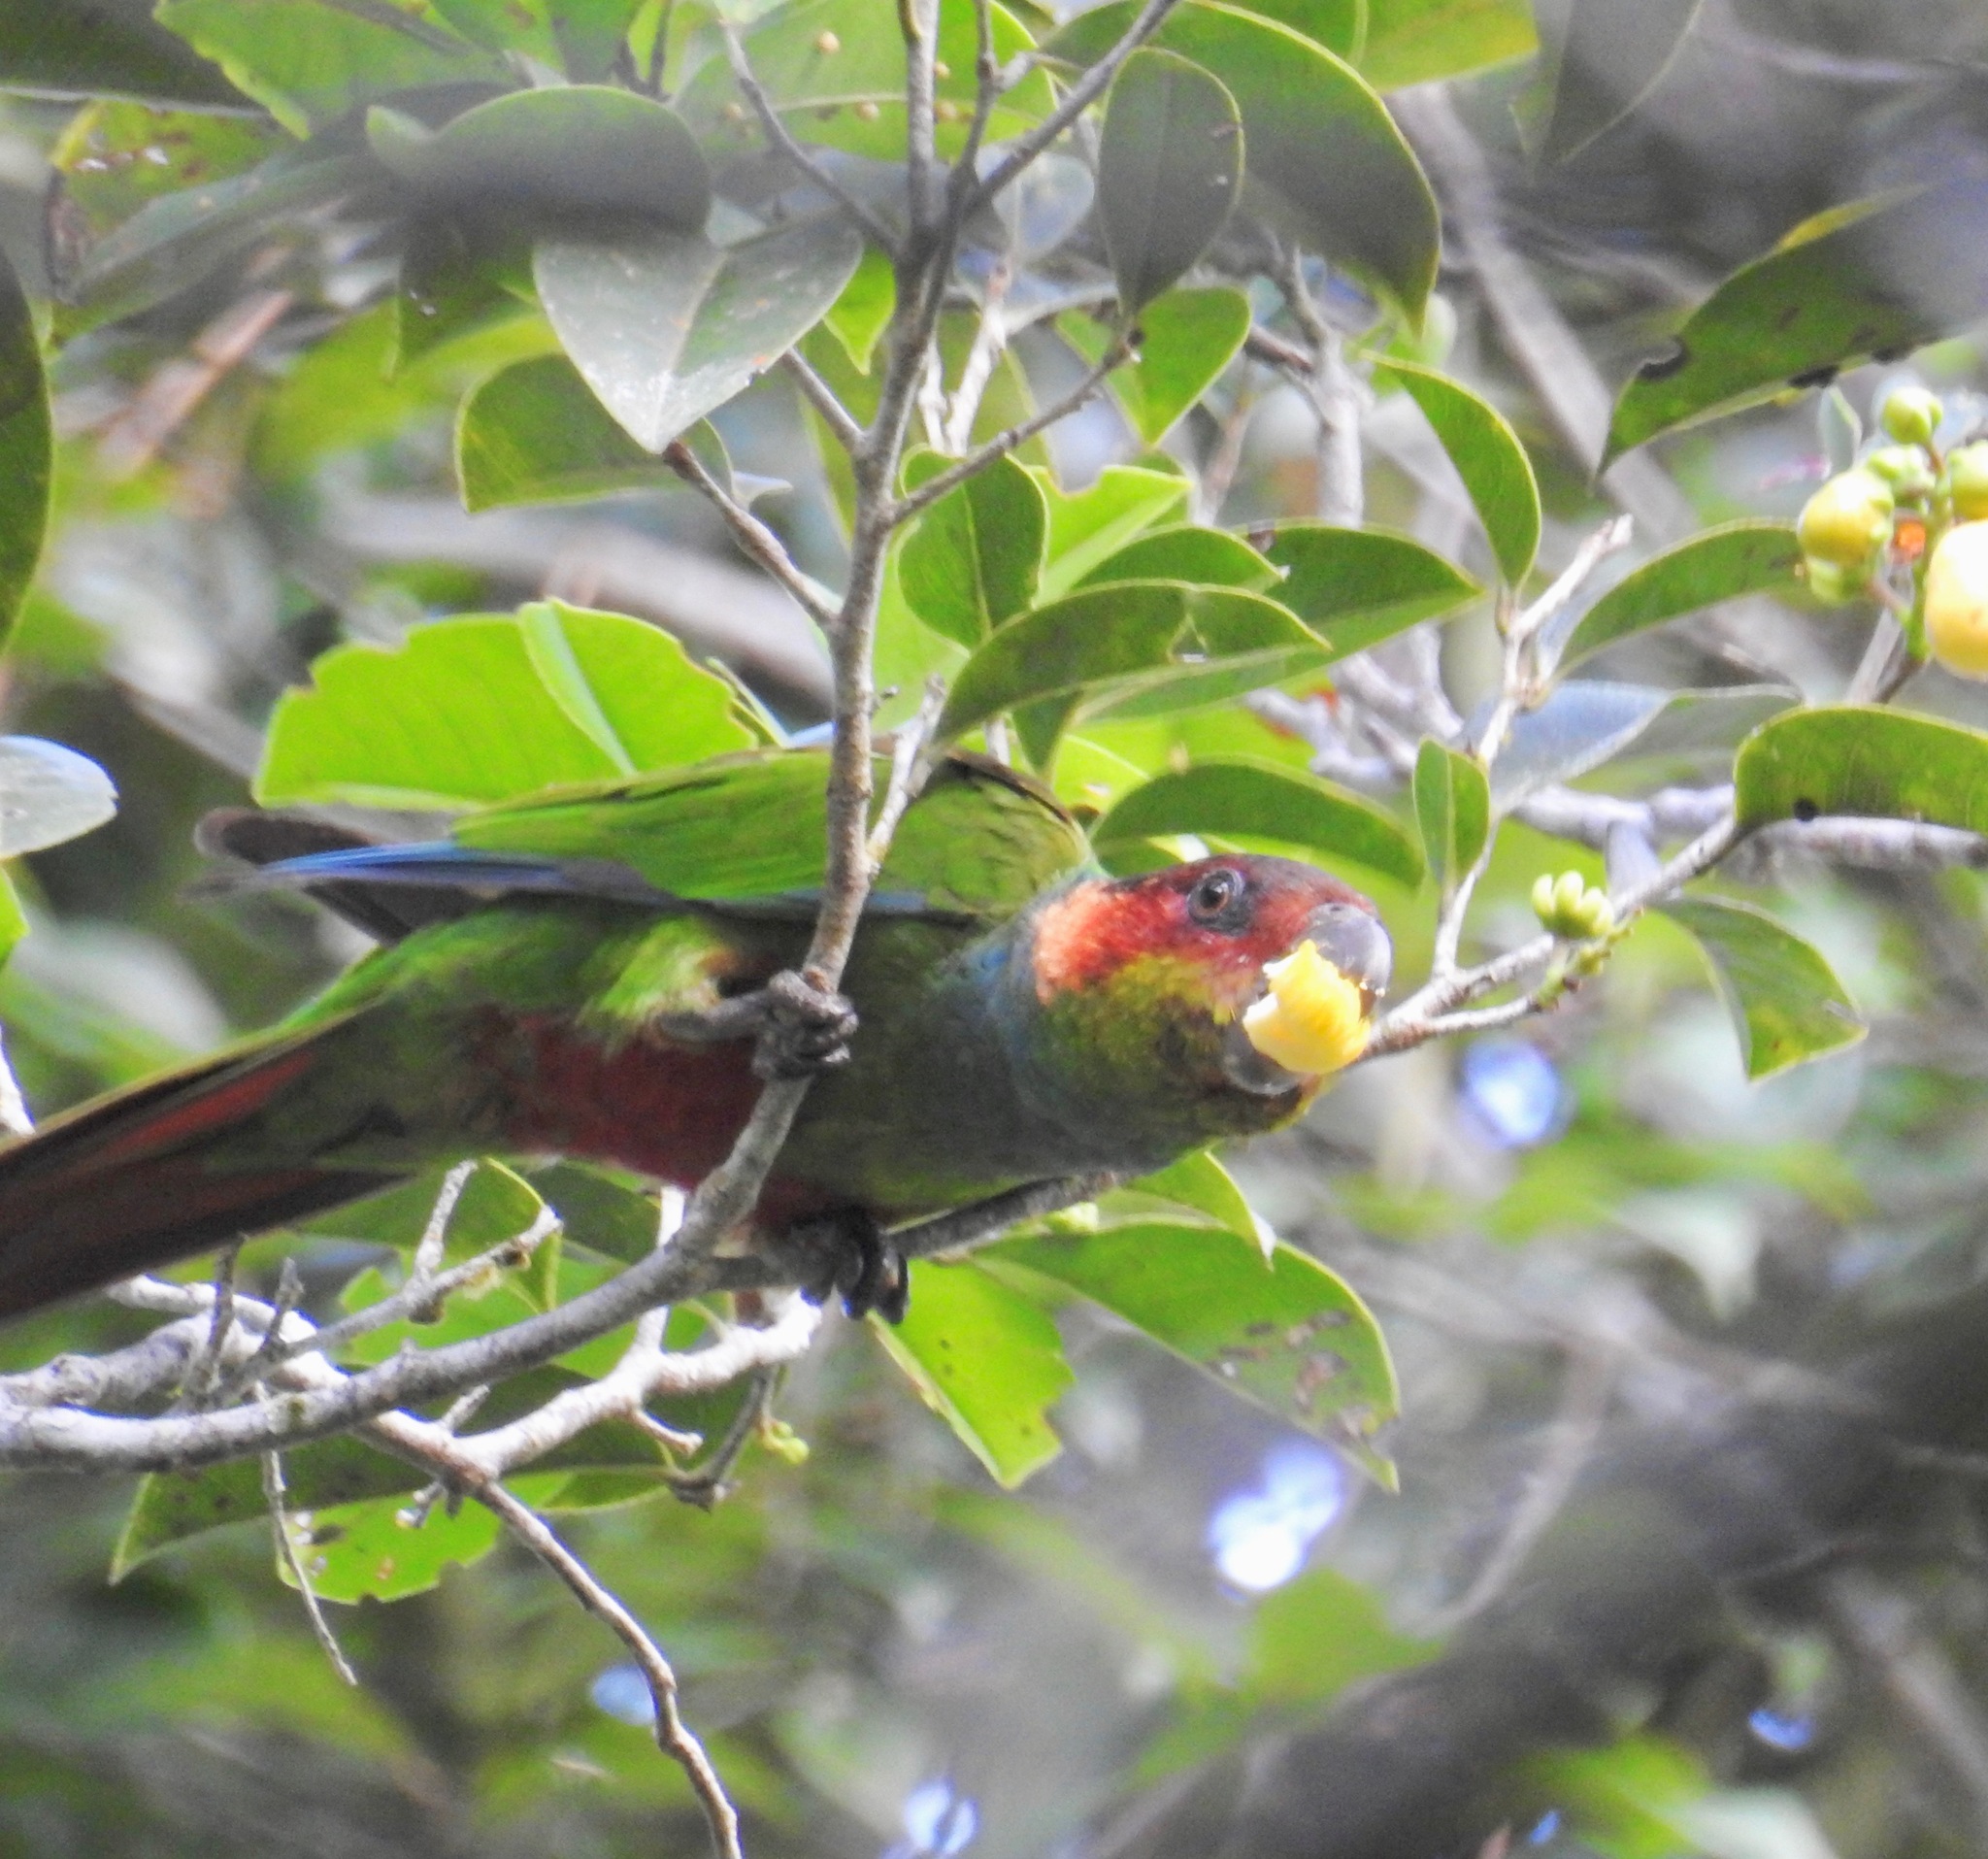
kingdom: Animalia
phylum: Chordata
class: Aves
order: Psittaciformes
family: Psittacidae
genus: Pyrrhura
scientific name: Pyrrhura cruentata
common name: Ochre-marked parakeet
